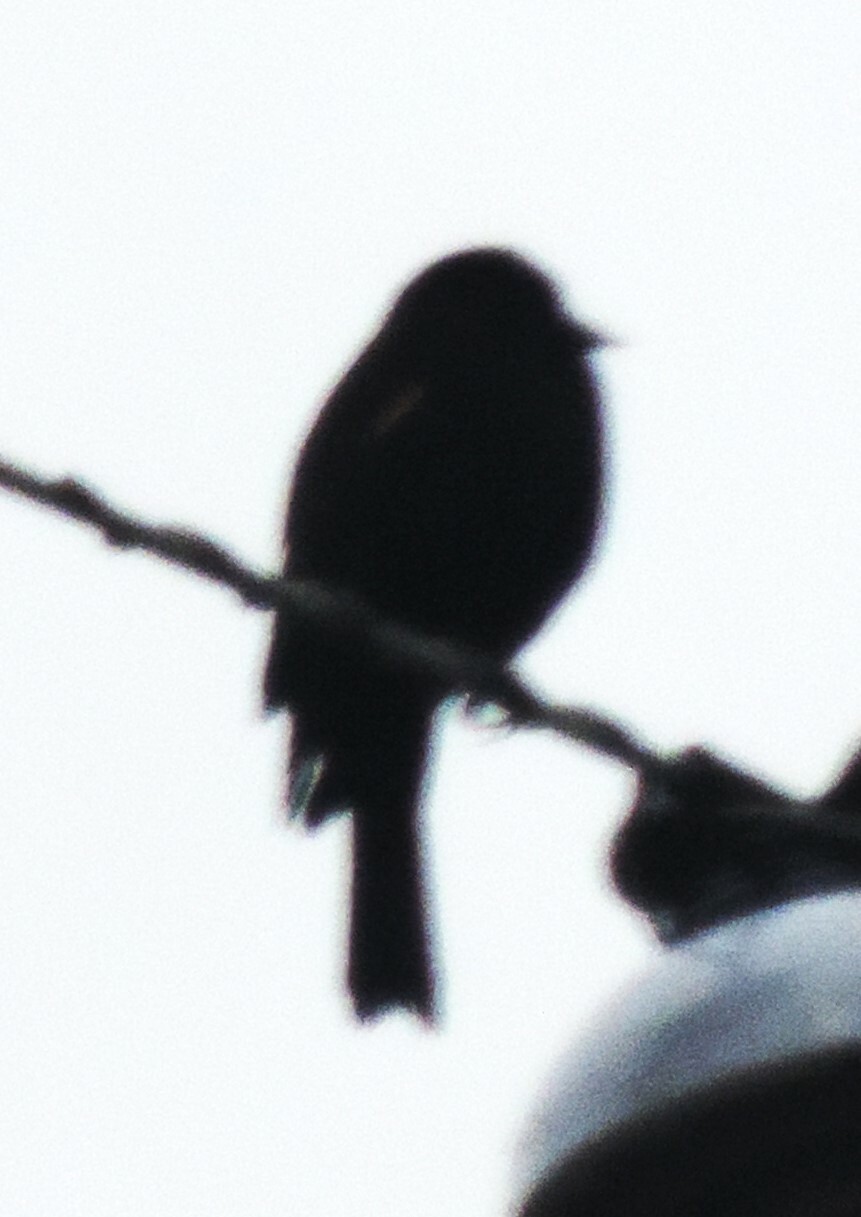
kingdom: Animalia
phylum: Chordata
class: Aves
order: Passeriformes
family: Icteridae
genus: Agelaius
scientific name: Agelaius phoeniceus
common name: Red-winged blackbird
